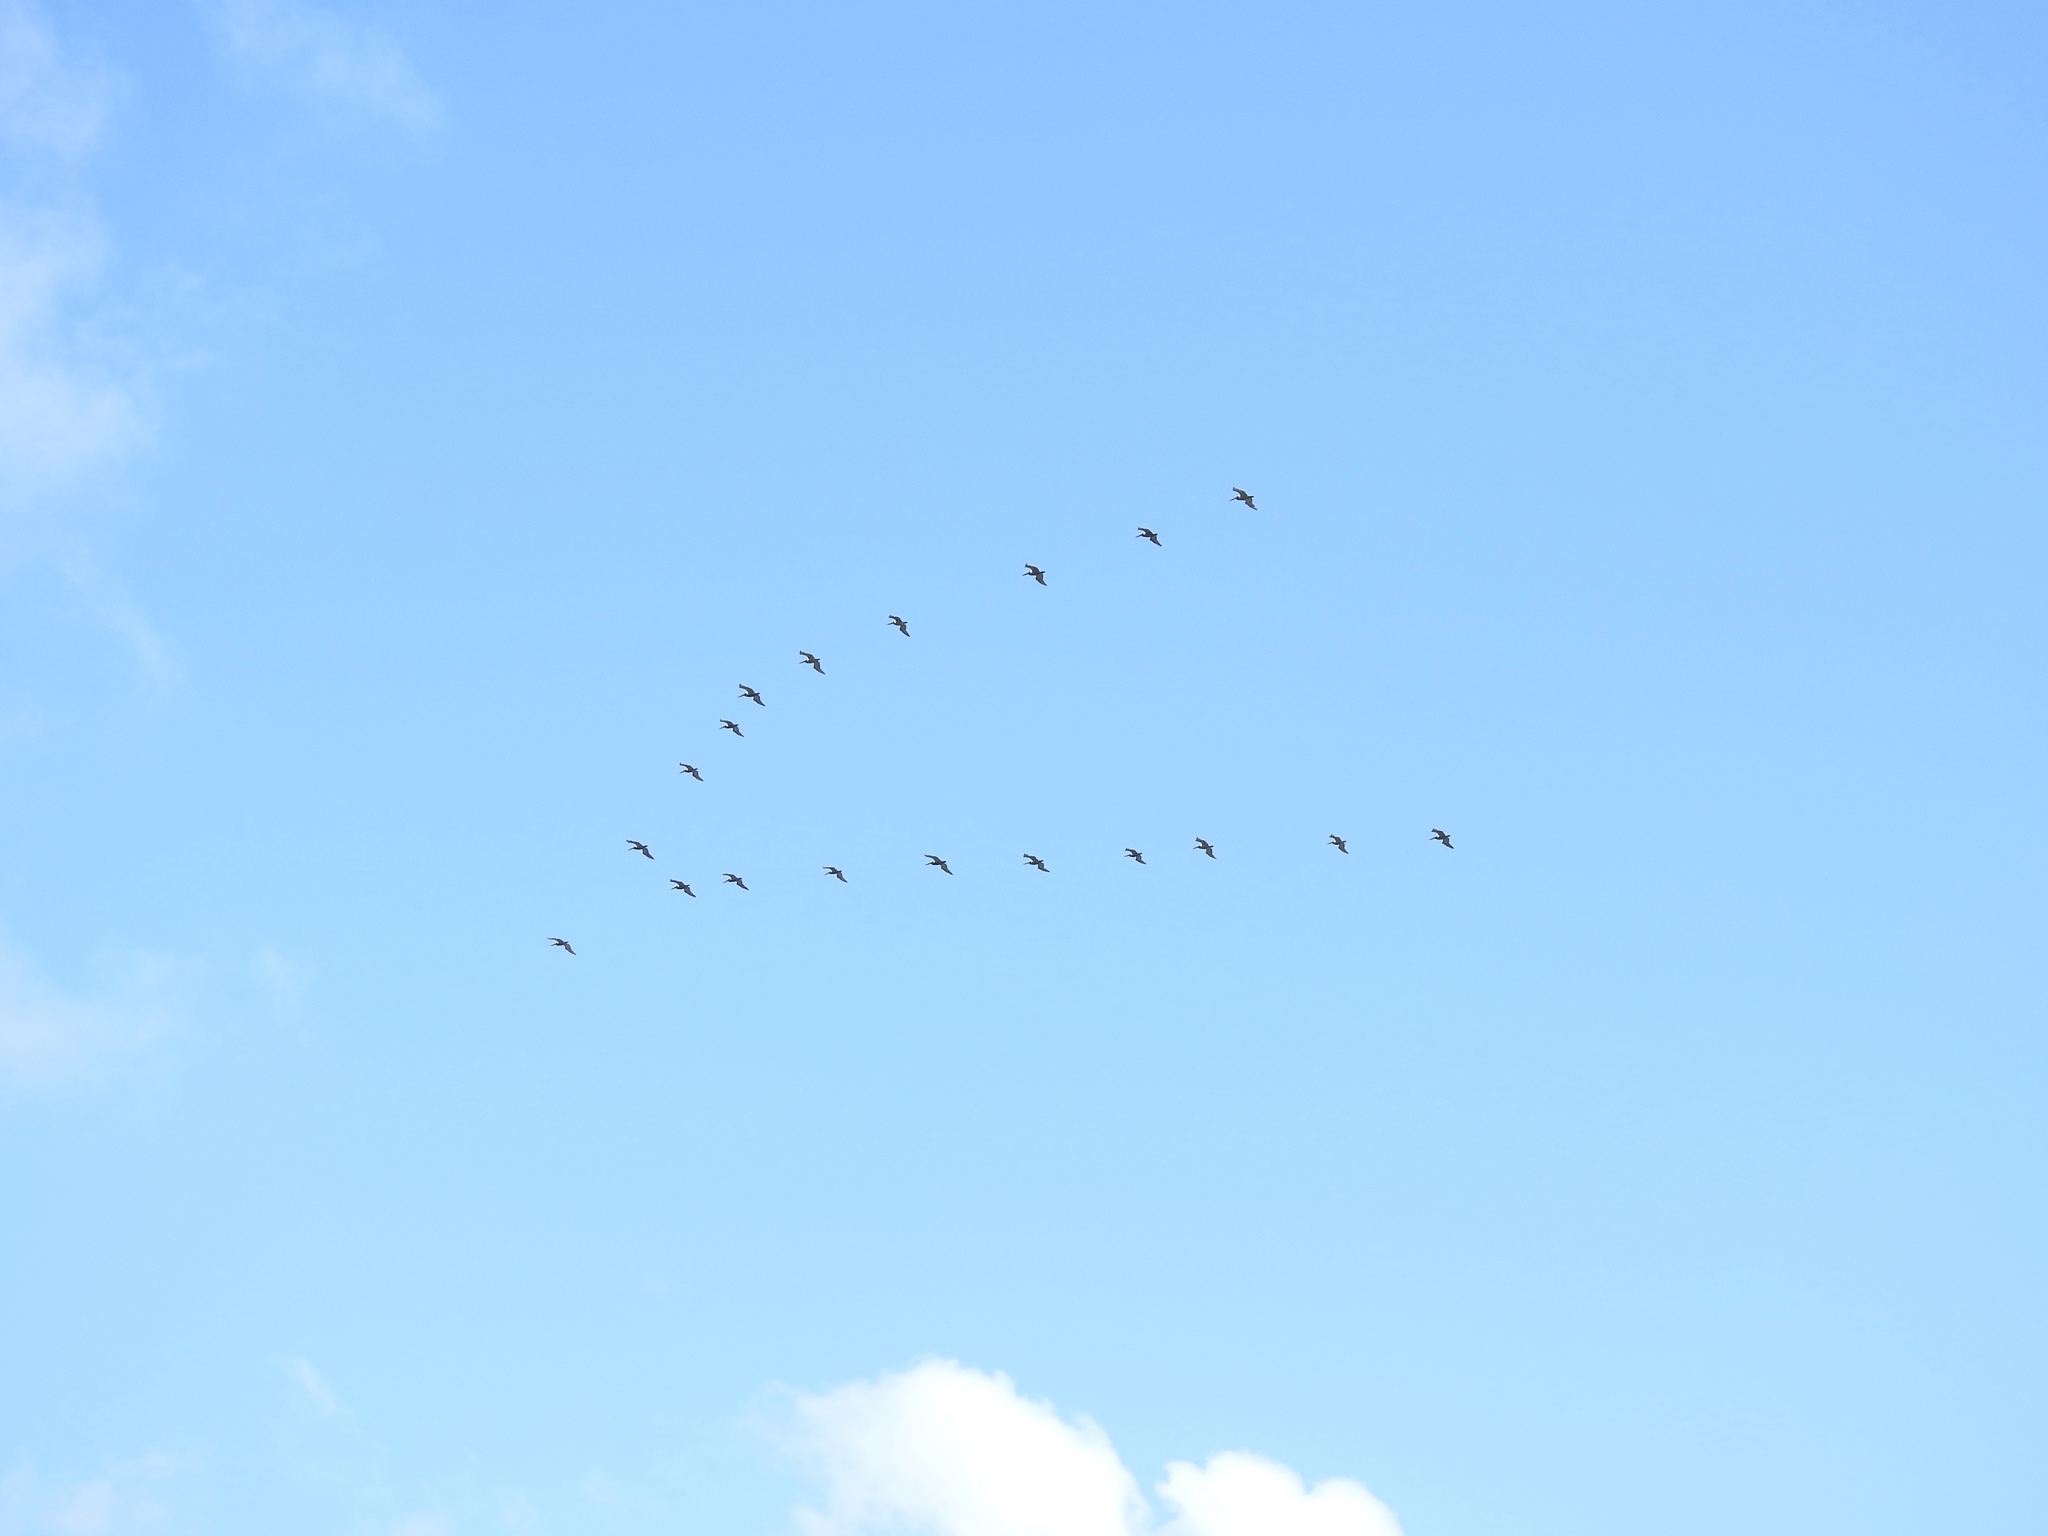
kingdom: Animalia
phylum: Chordata
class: Aves
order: Pelecaniformes
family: Pelecanidae
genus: Pelecanus
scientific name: Pelecanus occidentalis
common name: Brown pelican
